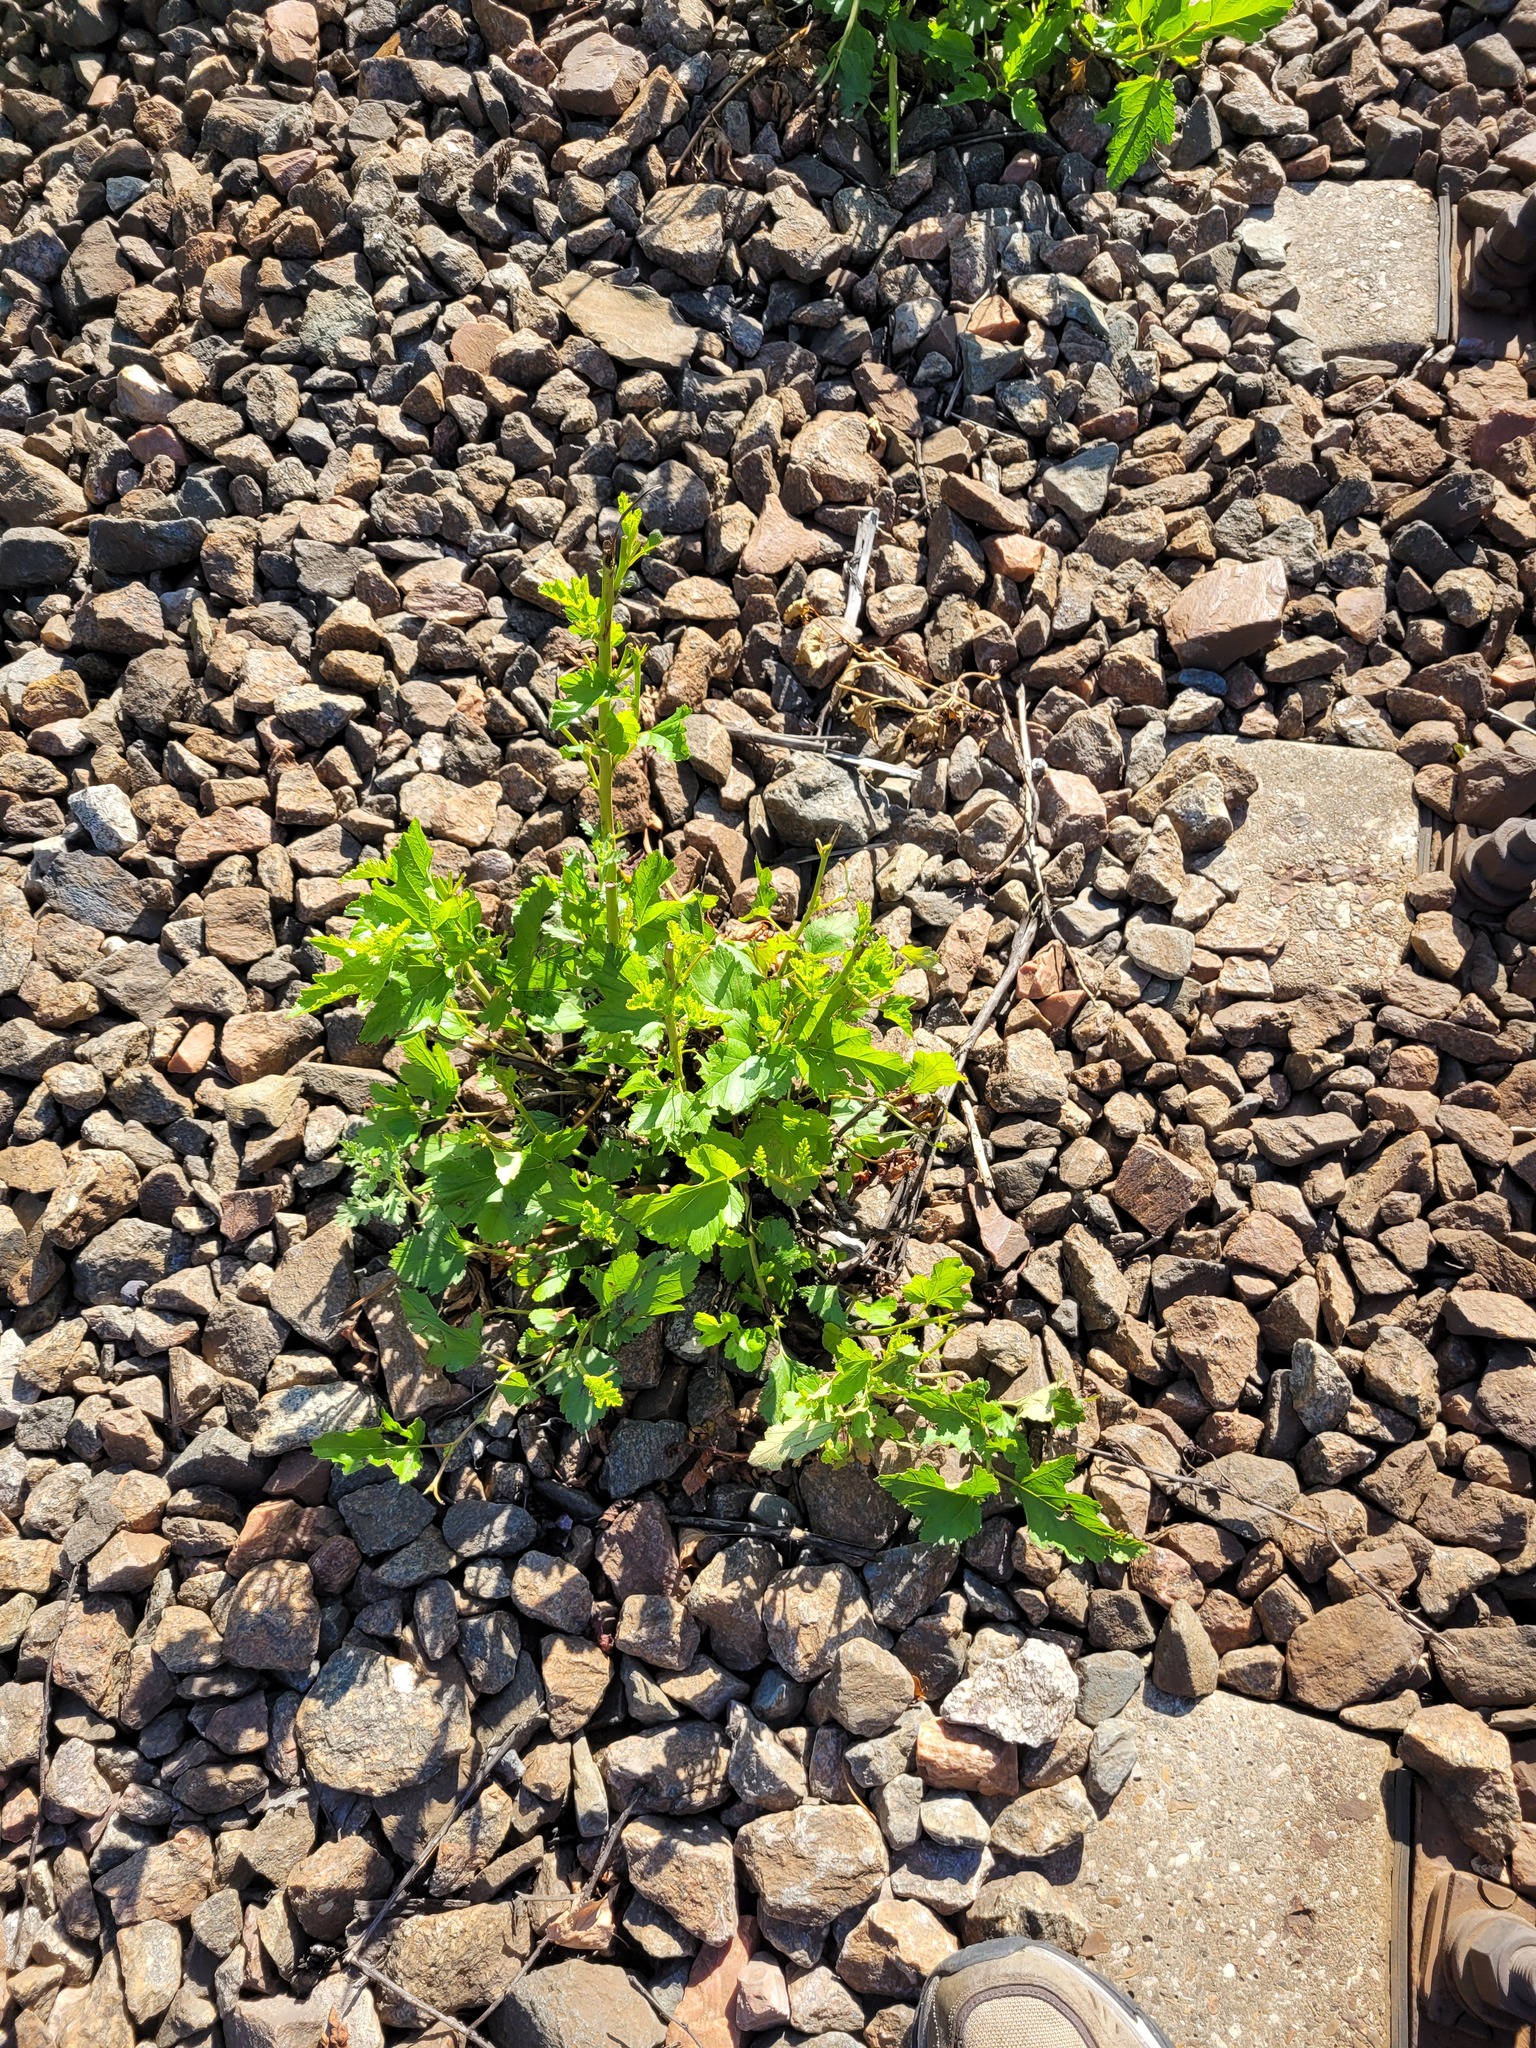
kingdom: Plantae
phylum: Tracheophyta
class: Magnoliopsida
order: Rosales
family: Rosaceae
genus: Physocarpus
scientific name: Physocarpus opulifolius
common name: Ninebark
